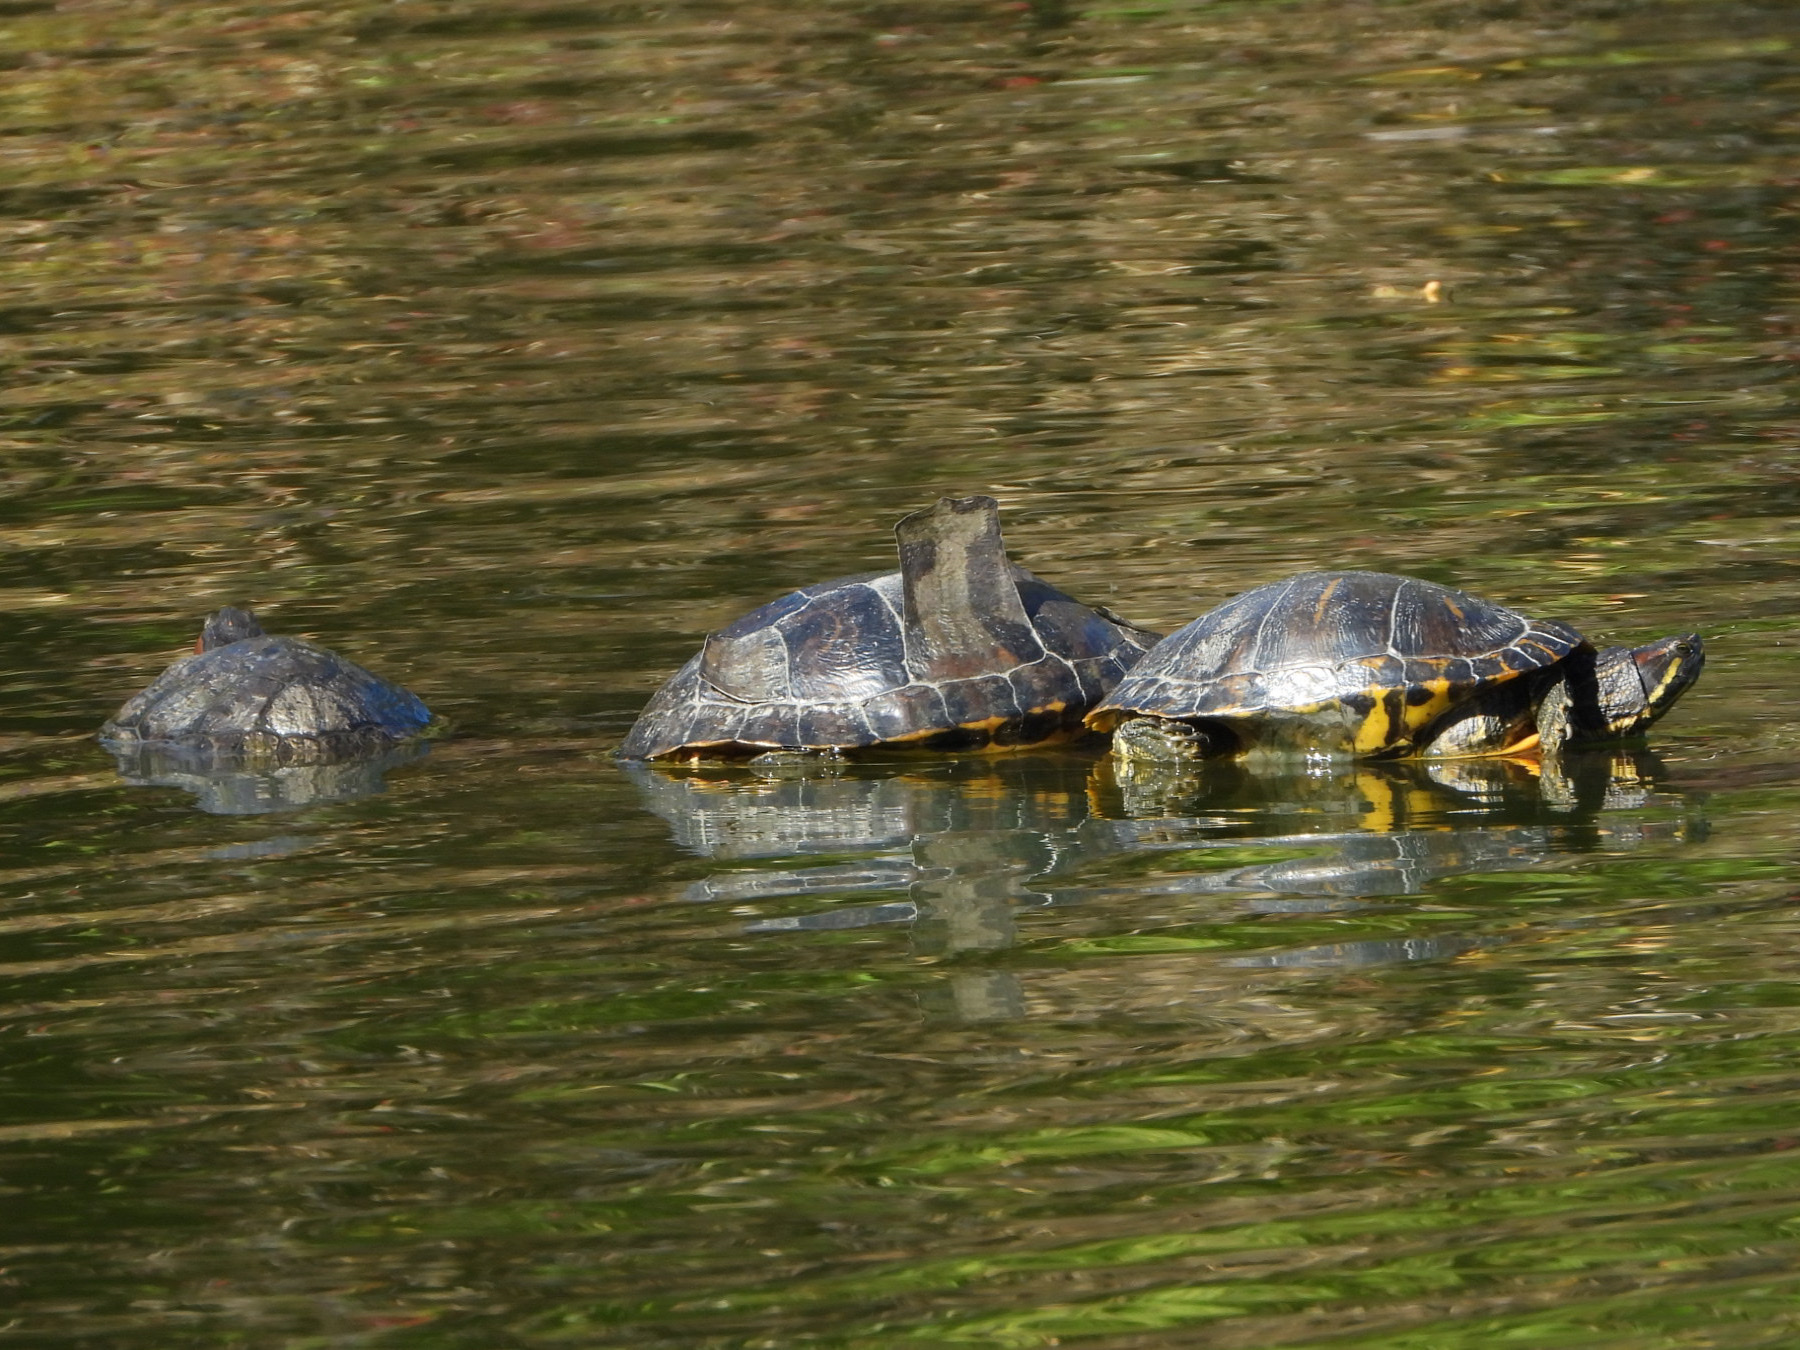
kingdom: Animalia
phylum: Chordata
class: Testudines
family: Emydidae
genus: Trachemys
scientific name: Trachemys scripta
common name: Slider
